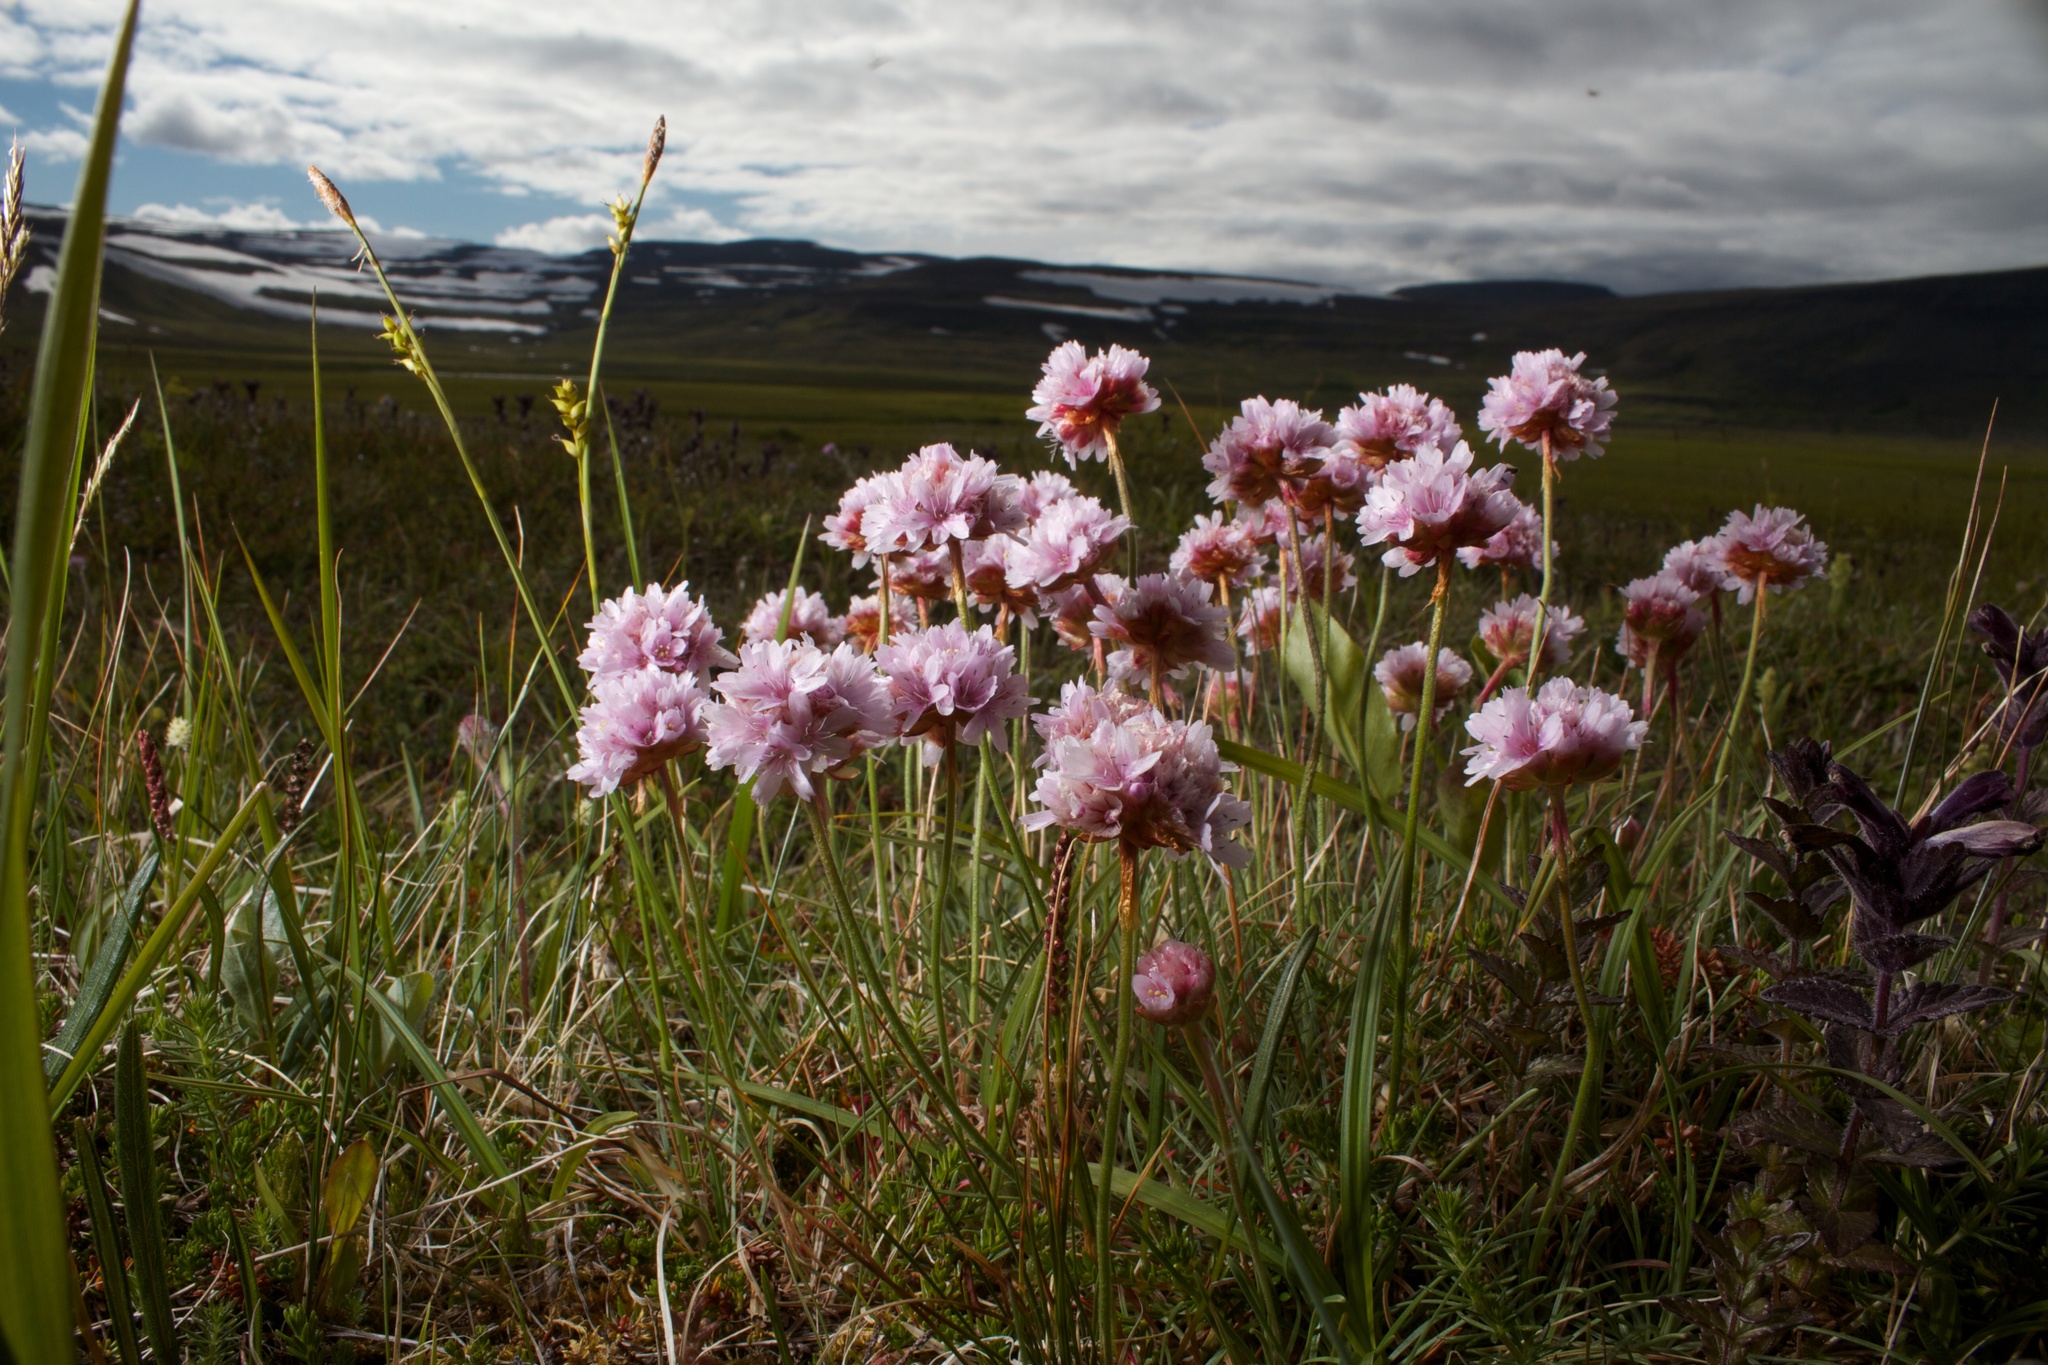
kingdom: Plantae
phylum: Tracheophyta
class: Magnoliopsida
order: Caryophyllales
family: Plumbaginaceae
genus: Armeria
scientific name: Armeria maritima
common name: Thrift
